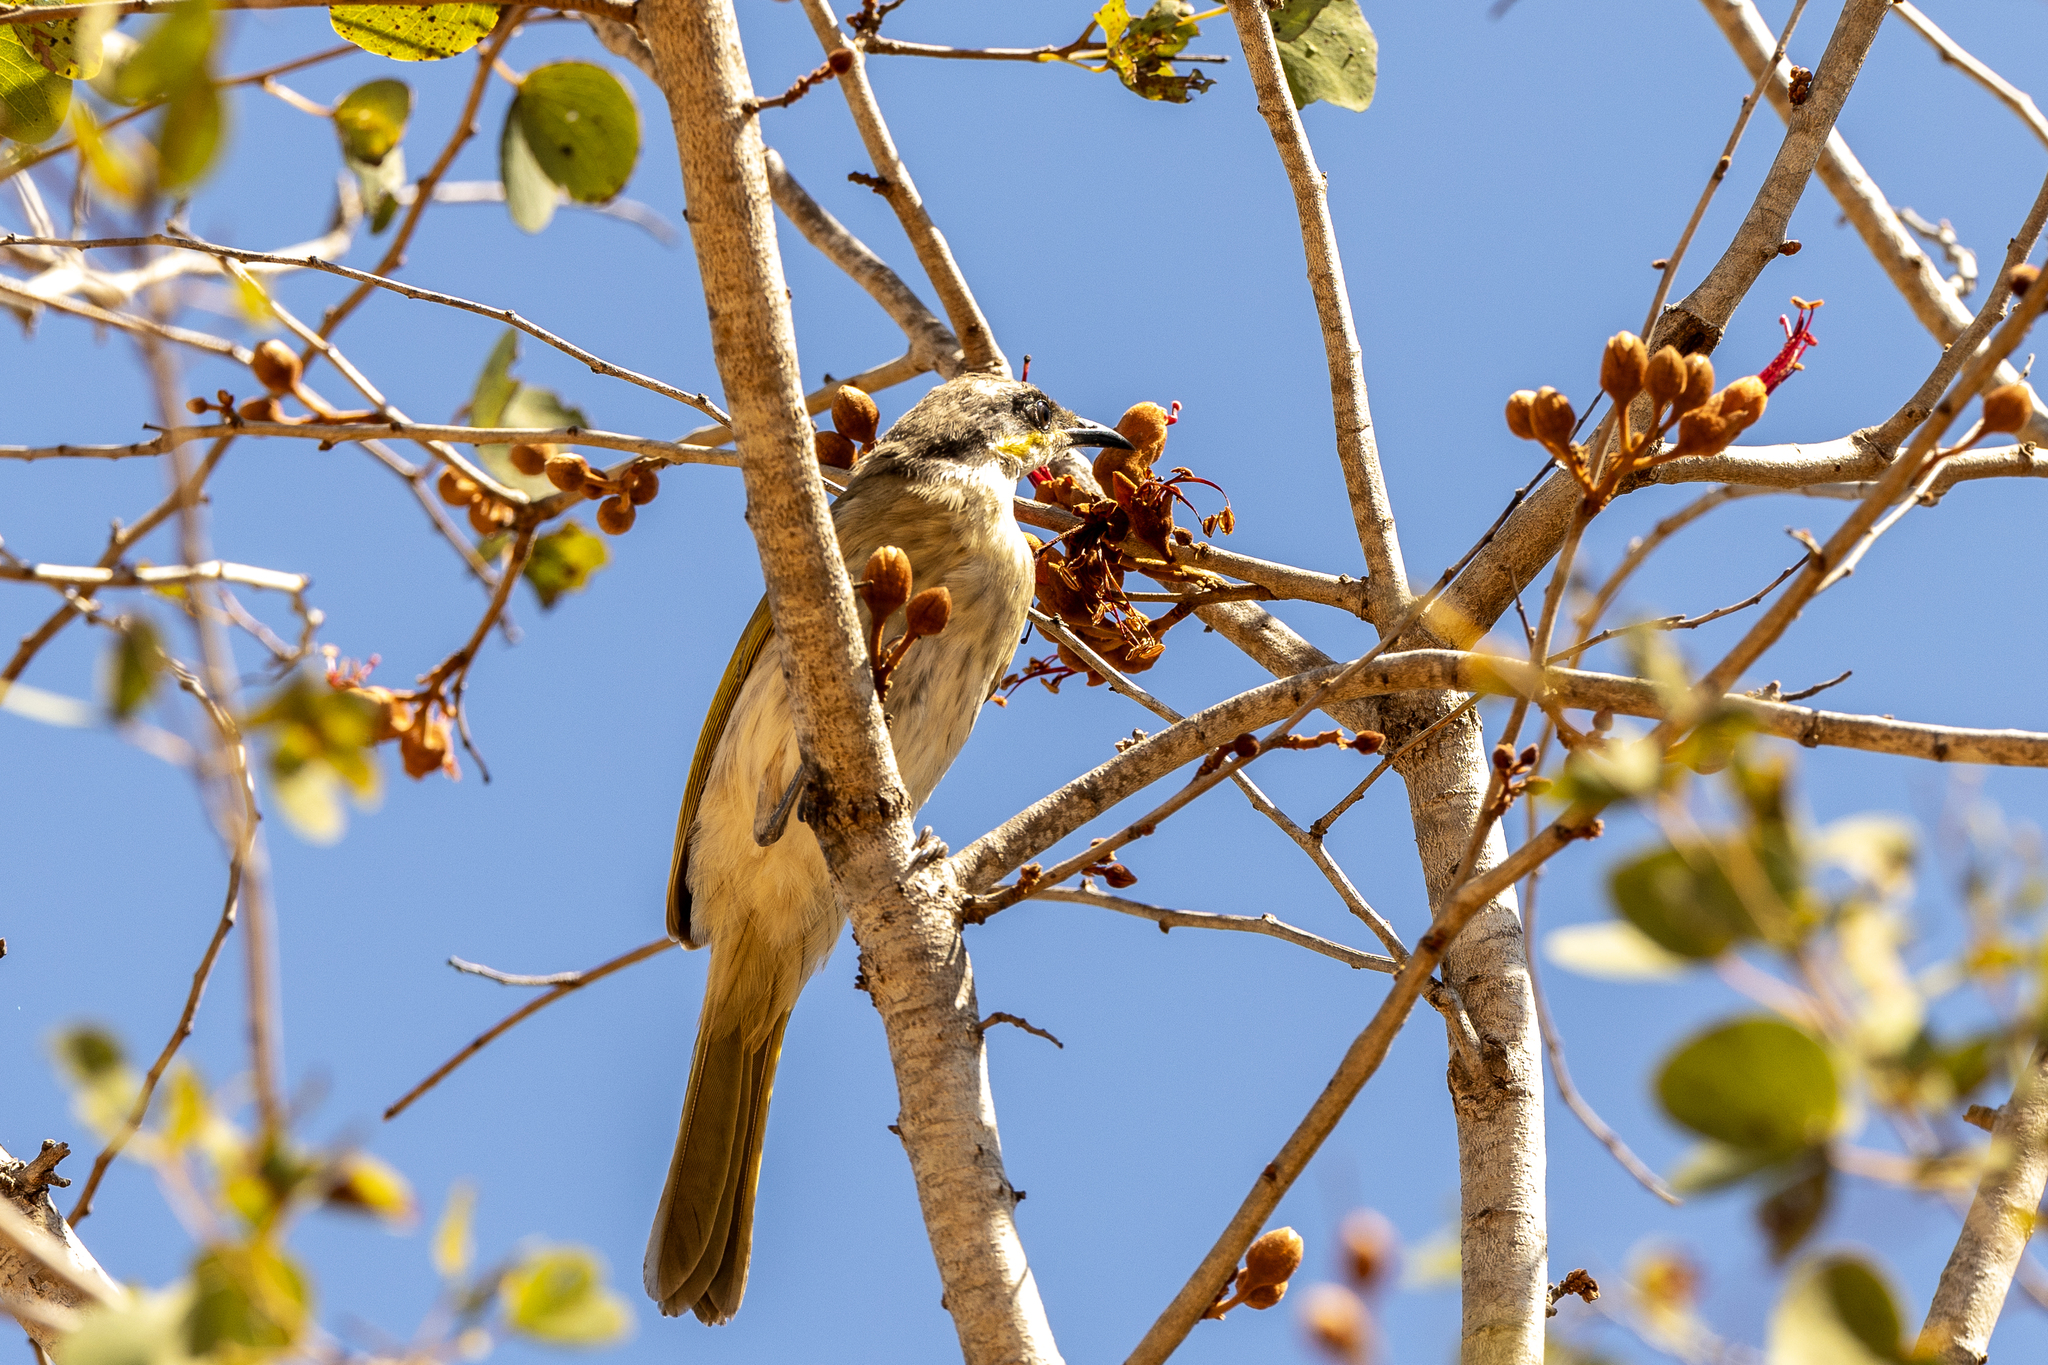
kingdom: Animalia
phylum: Chordata
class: Aves
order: Passeriformes
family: Meliphagidae
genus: Lichmera
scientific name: Lichmera indistincta
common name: Brown honeyeater
